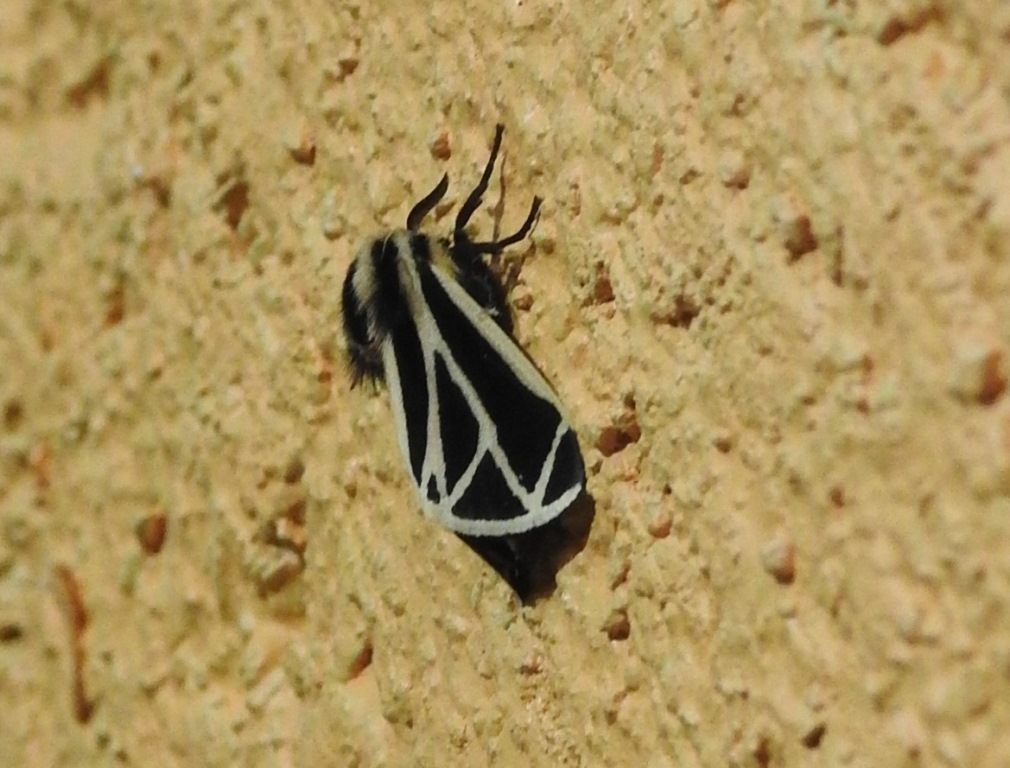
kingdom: Animalia
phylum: Arthropoda
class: Insecta
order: Lepidoptera
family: Erebidae
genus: Apantesis
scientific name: Apantesis phalerata
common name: Harnessed tiger moth
